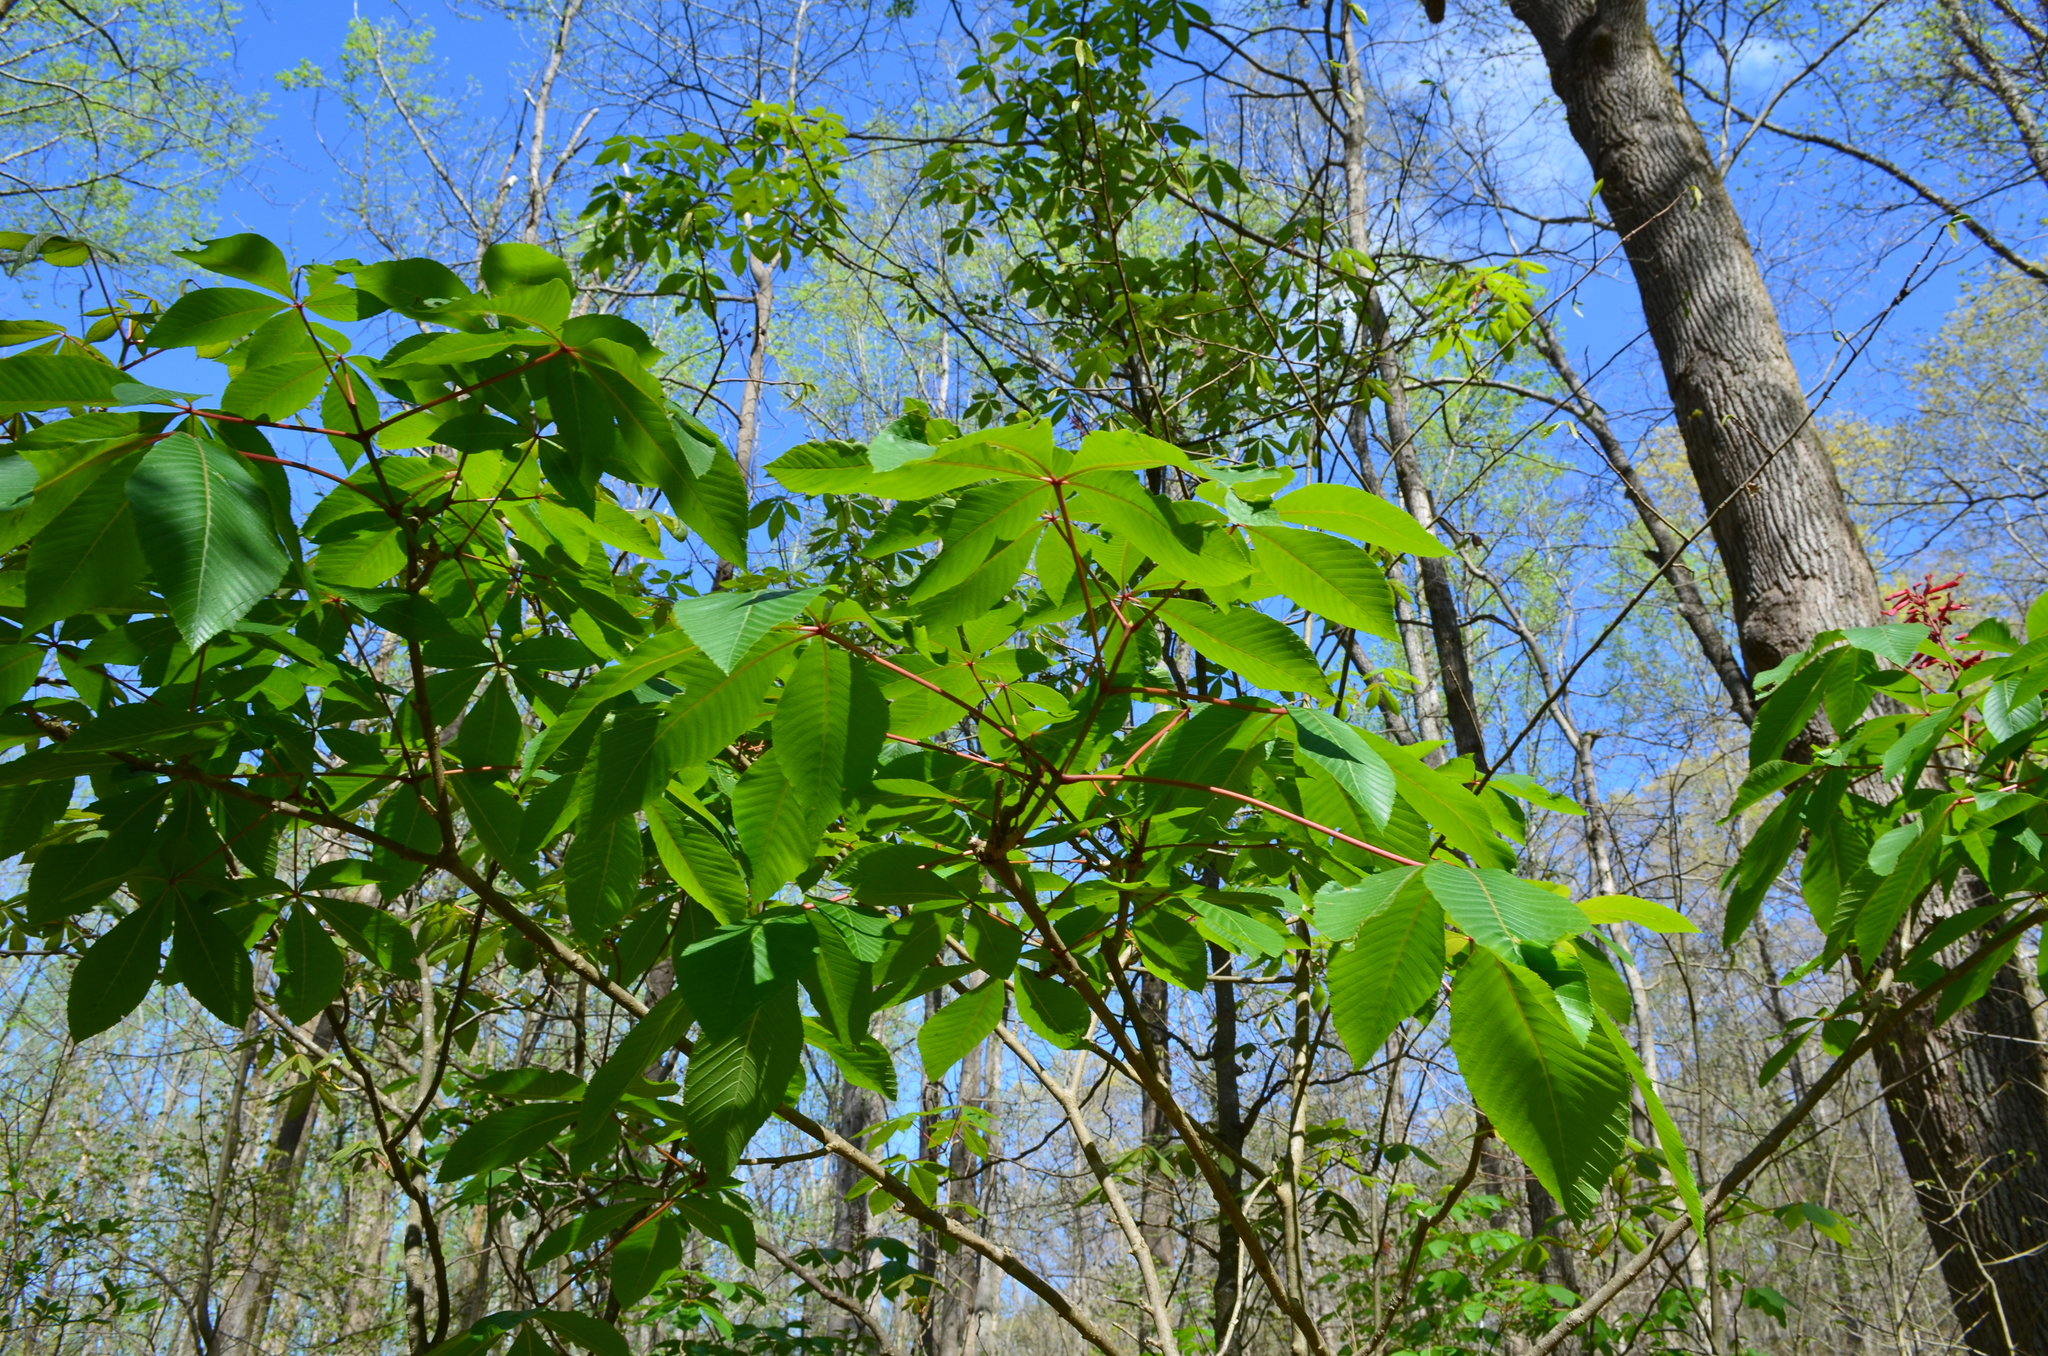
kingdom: Plantae
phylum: Tracheophyta
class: Magnoliopsida
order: Sapindales
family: Sapindaceae
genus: Aesculus
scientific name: Aesculus pavia
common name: Red buckeye
